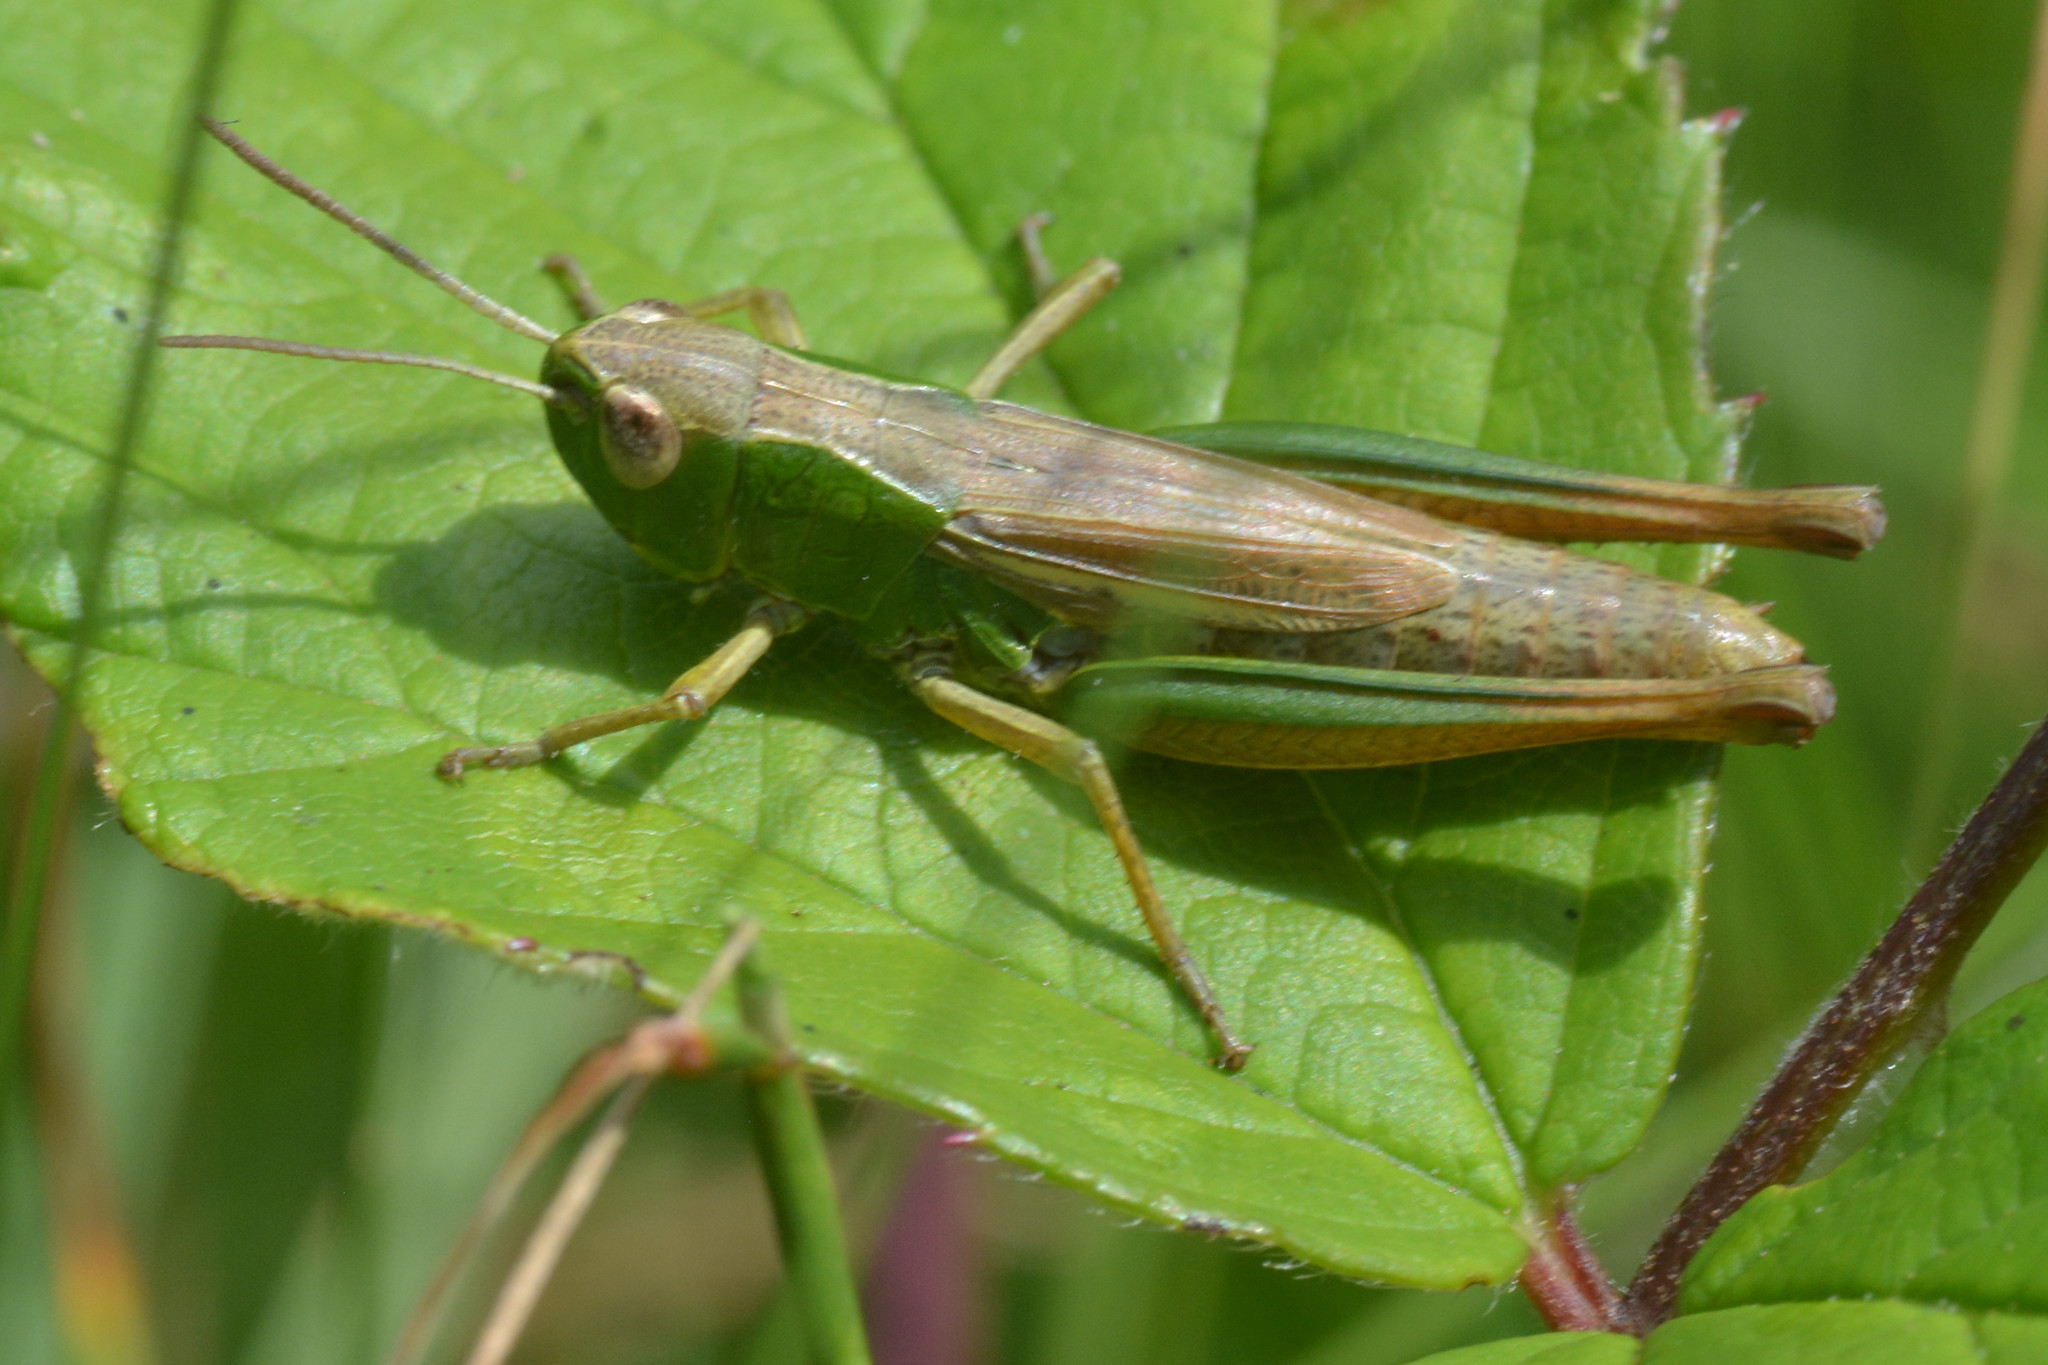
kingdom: Animalia
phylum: Arthropoda
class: Insecta
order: Orthoptera
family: Acrididae
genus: Pseudochorthippus
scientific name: Pseudochorthippus parallelus
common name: Meadow grasshopper
